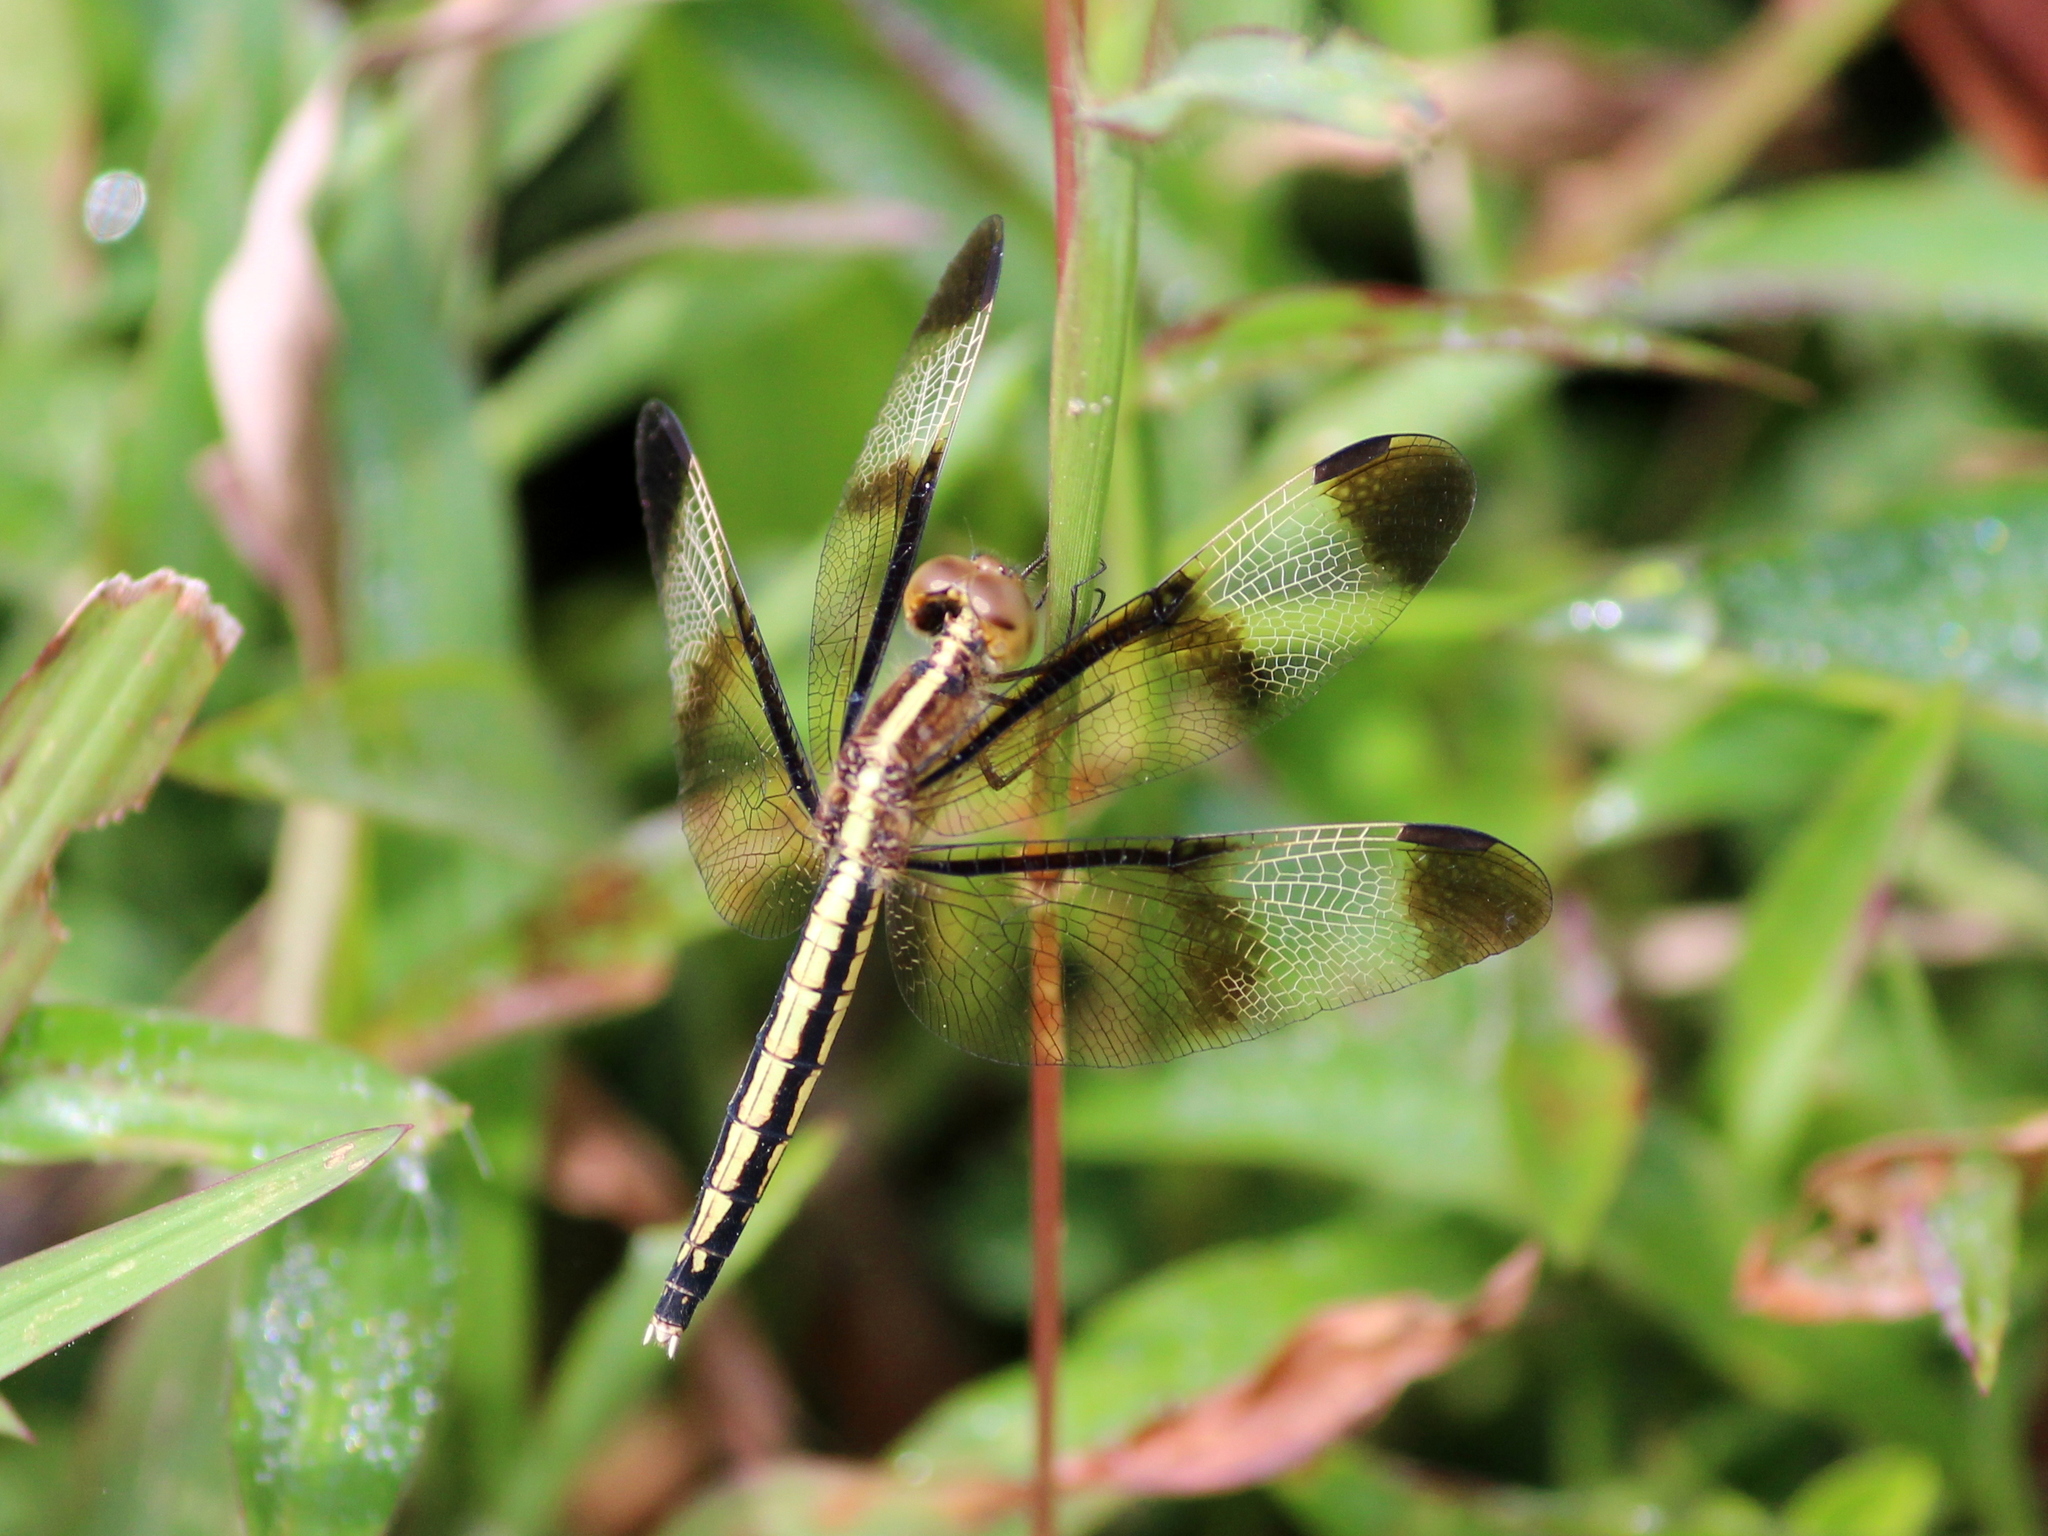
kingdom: Animalia
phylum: Arthropoda
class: Insecta
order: Odonata
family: Libellulidae
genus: Neurothemis
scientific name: Neurothemis tullia
